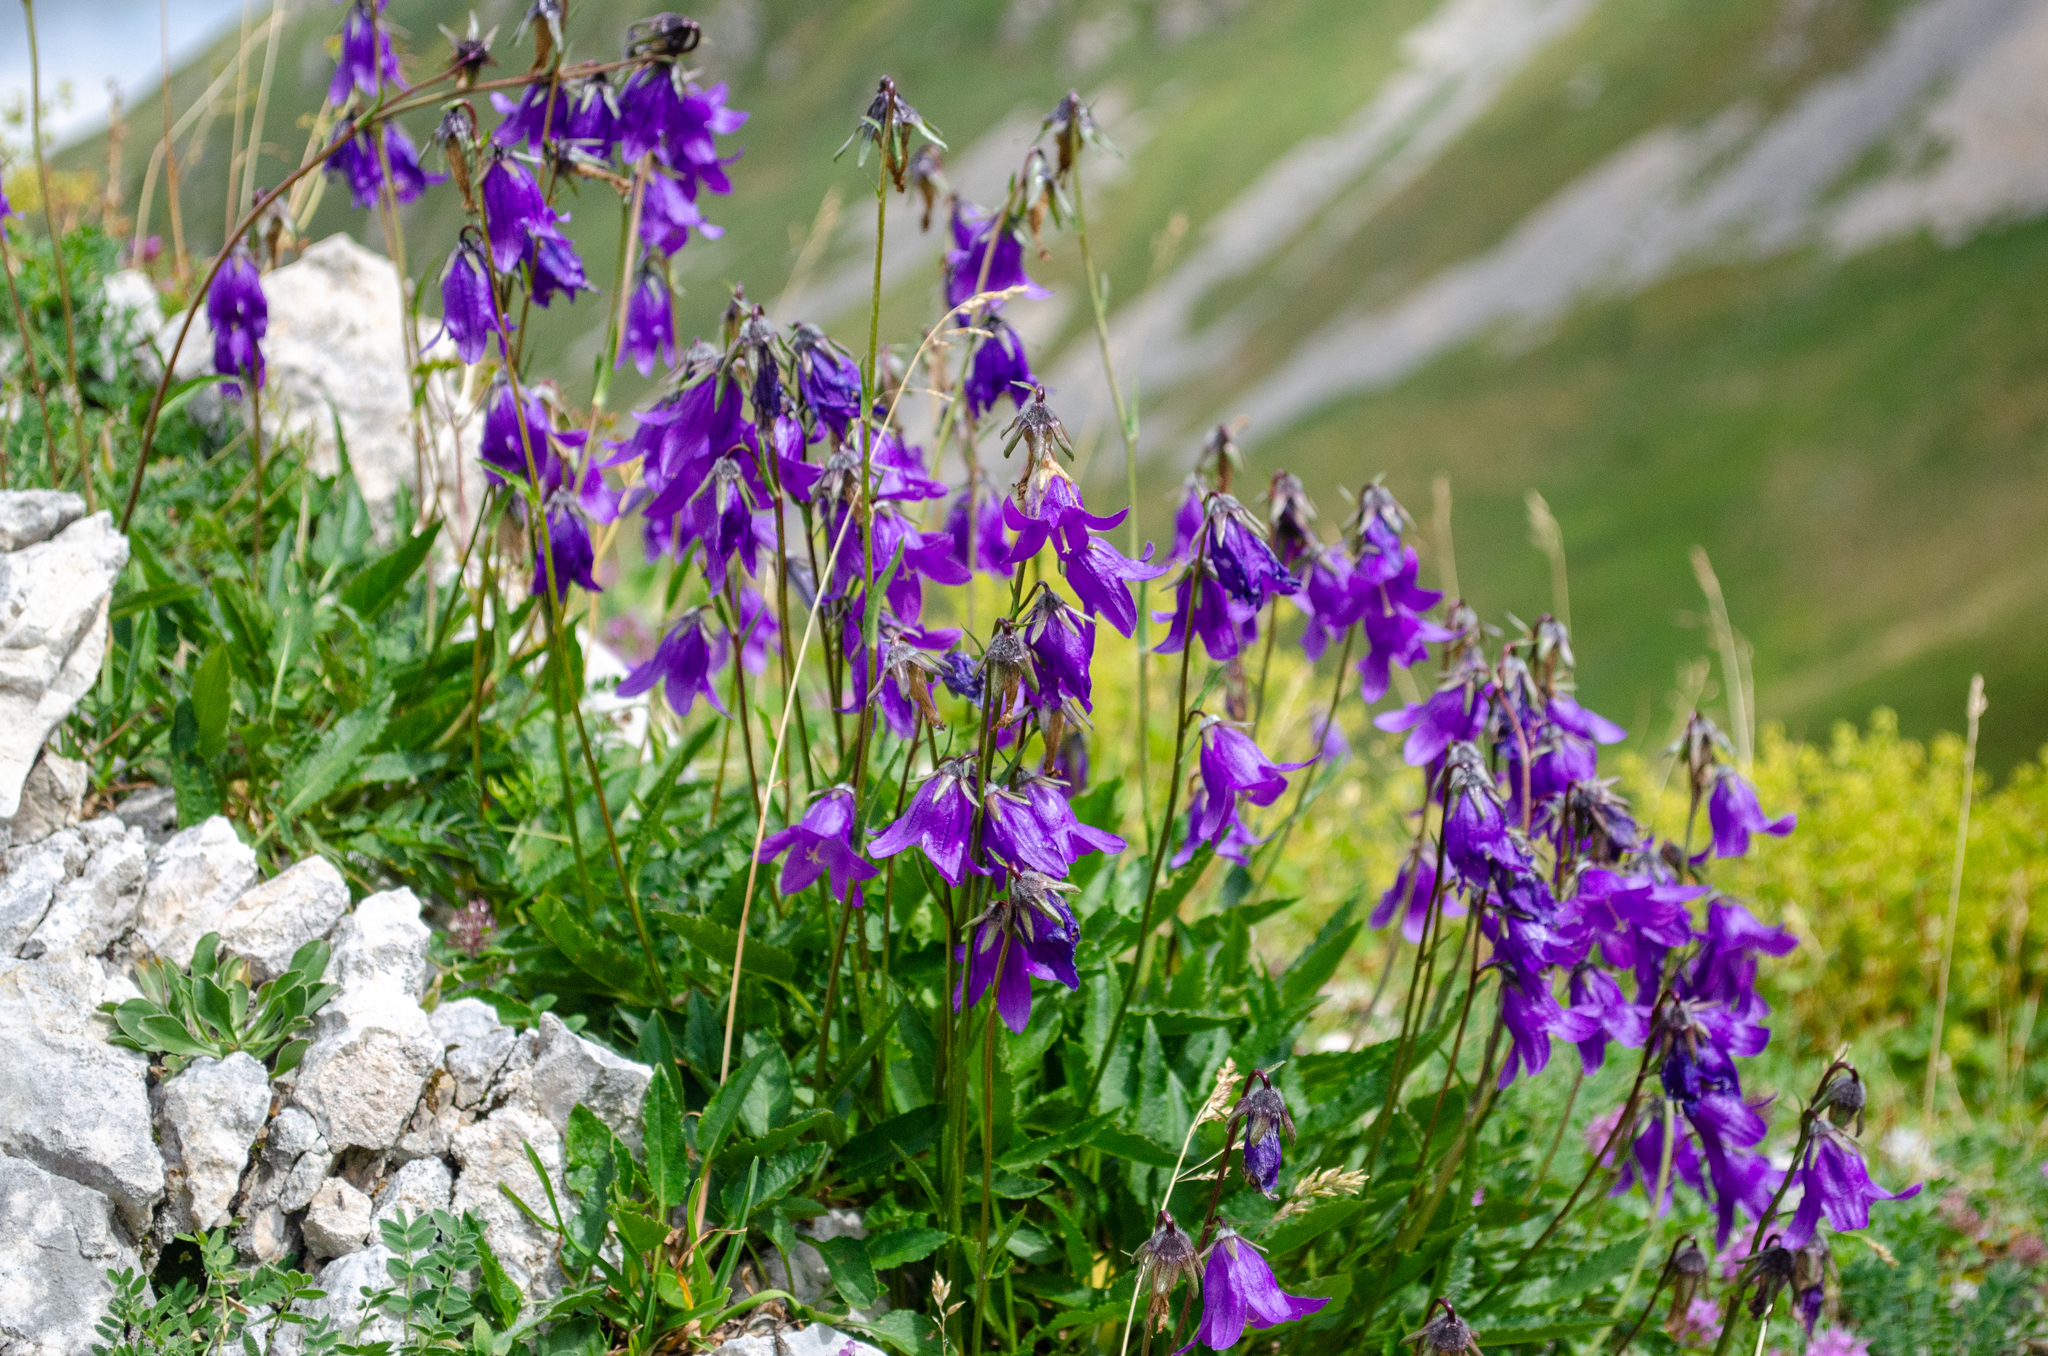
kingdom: Plantae
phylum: Tracheophyta
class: Magnoliopsida
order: Asterales
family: Campanulaceae
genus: Campanula
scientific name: Campanula collina
